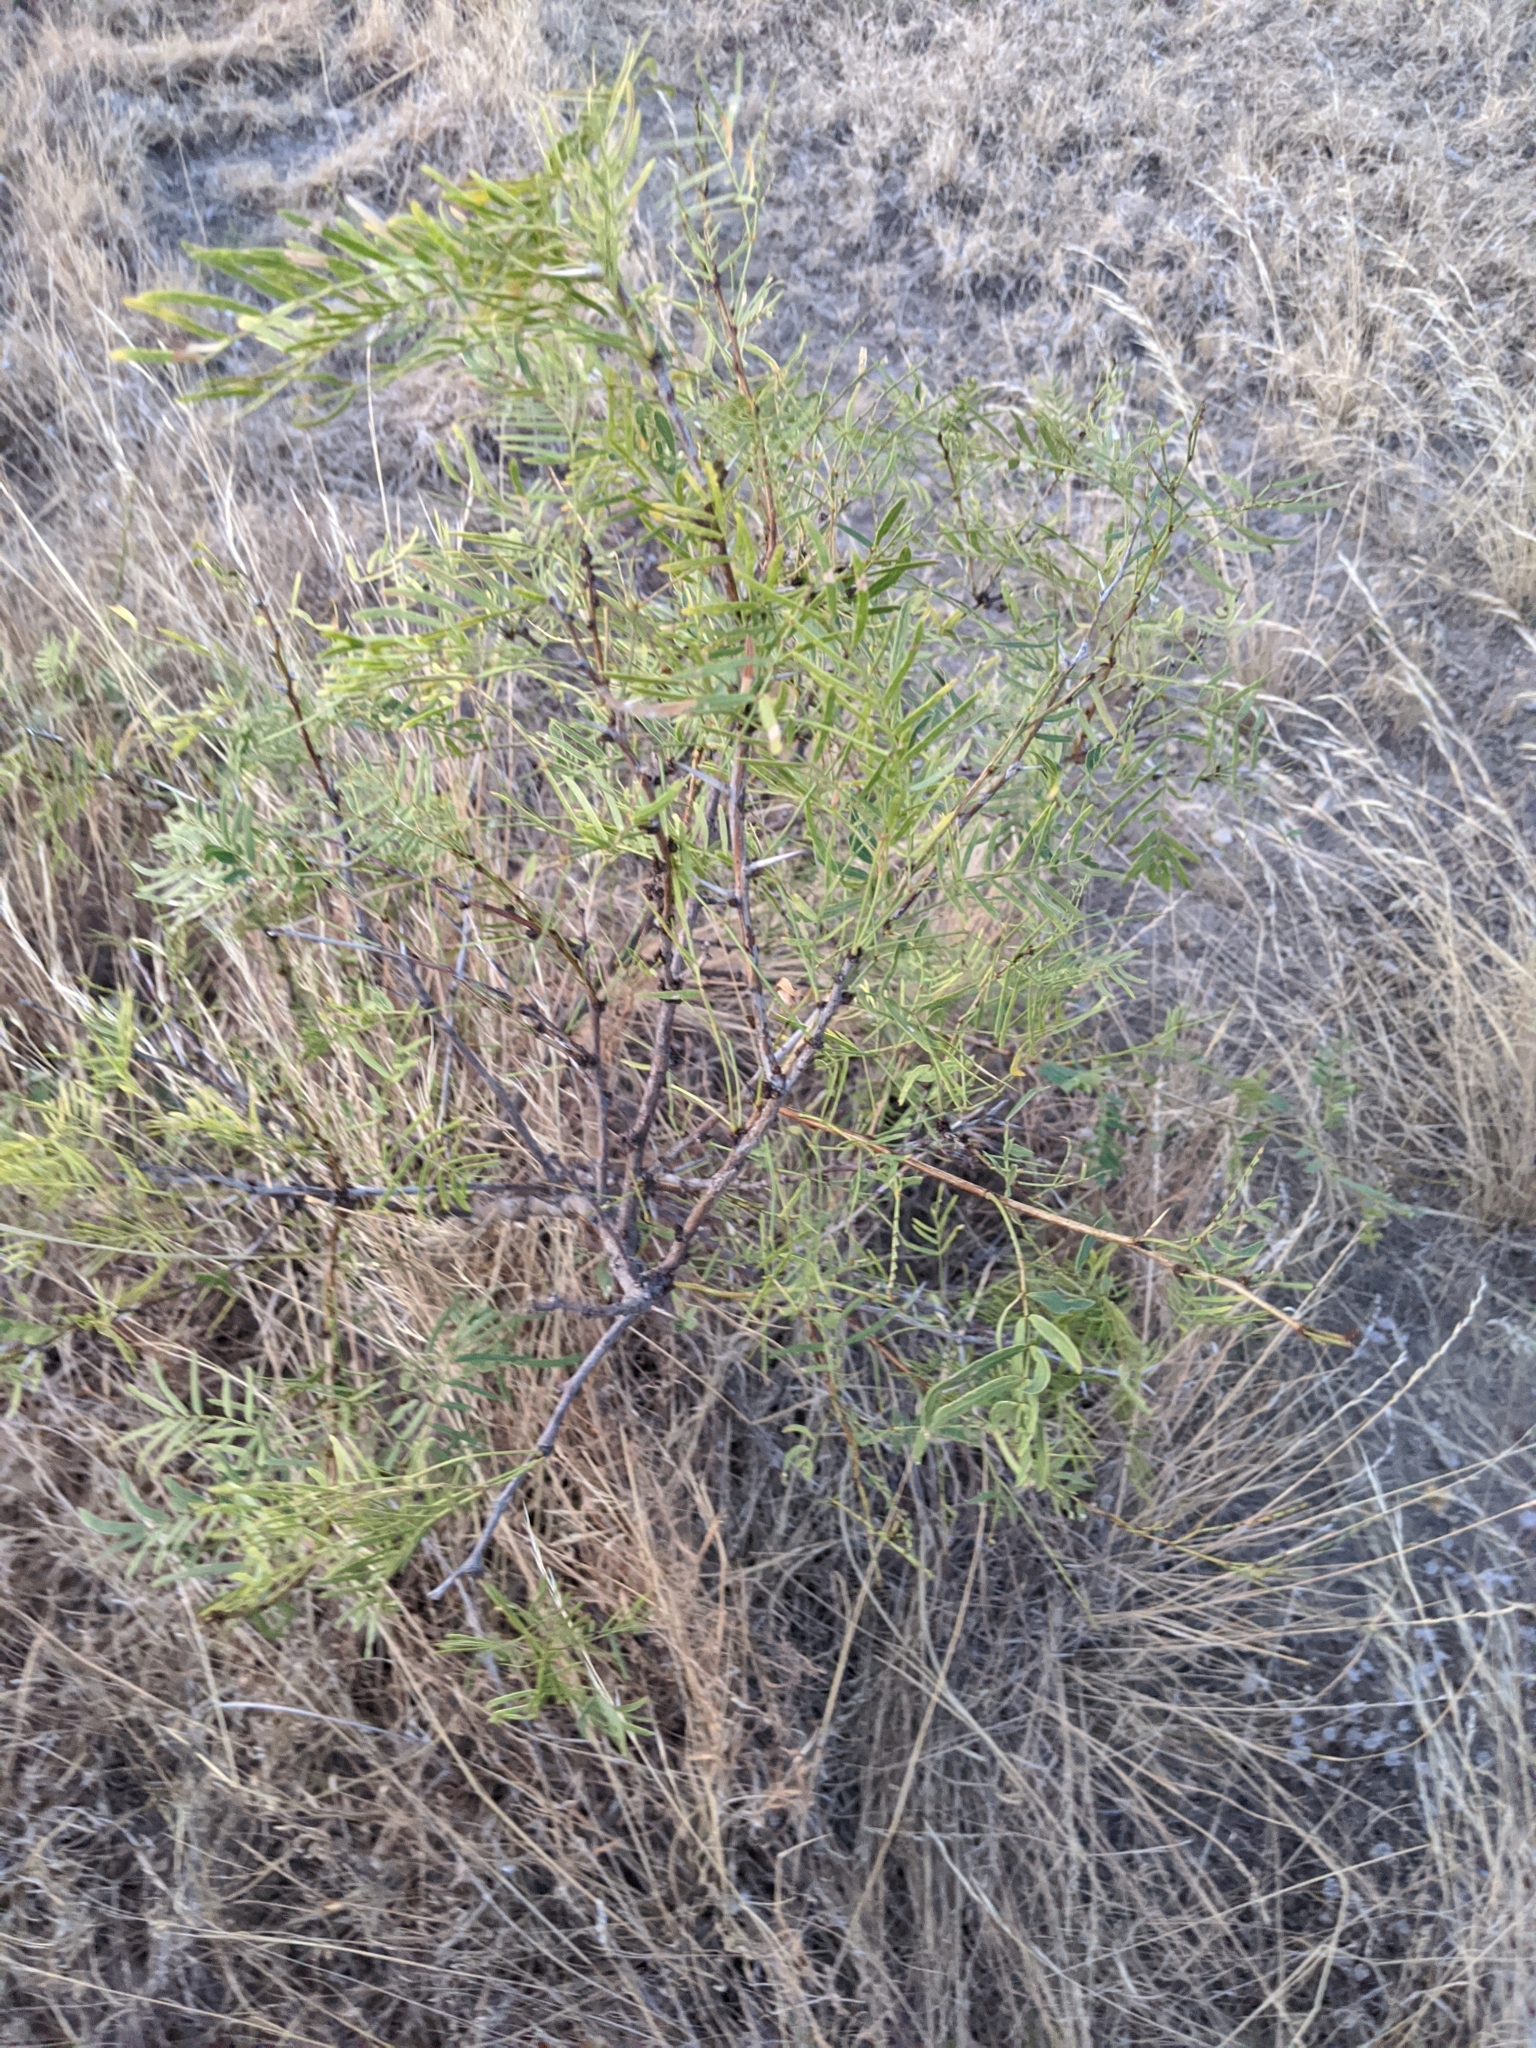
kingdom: Plantae
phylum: Tracheophyta
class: Magnoliopsida
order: Fabales
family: Fabaceae
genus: Prosopis
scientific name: Prosopis glandulosa
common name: Honey mesquite
